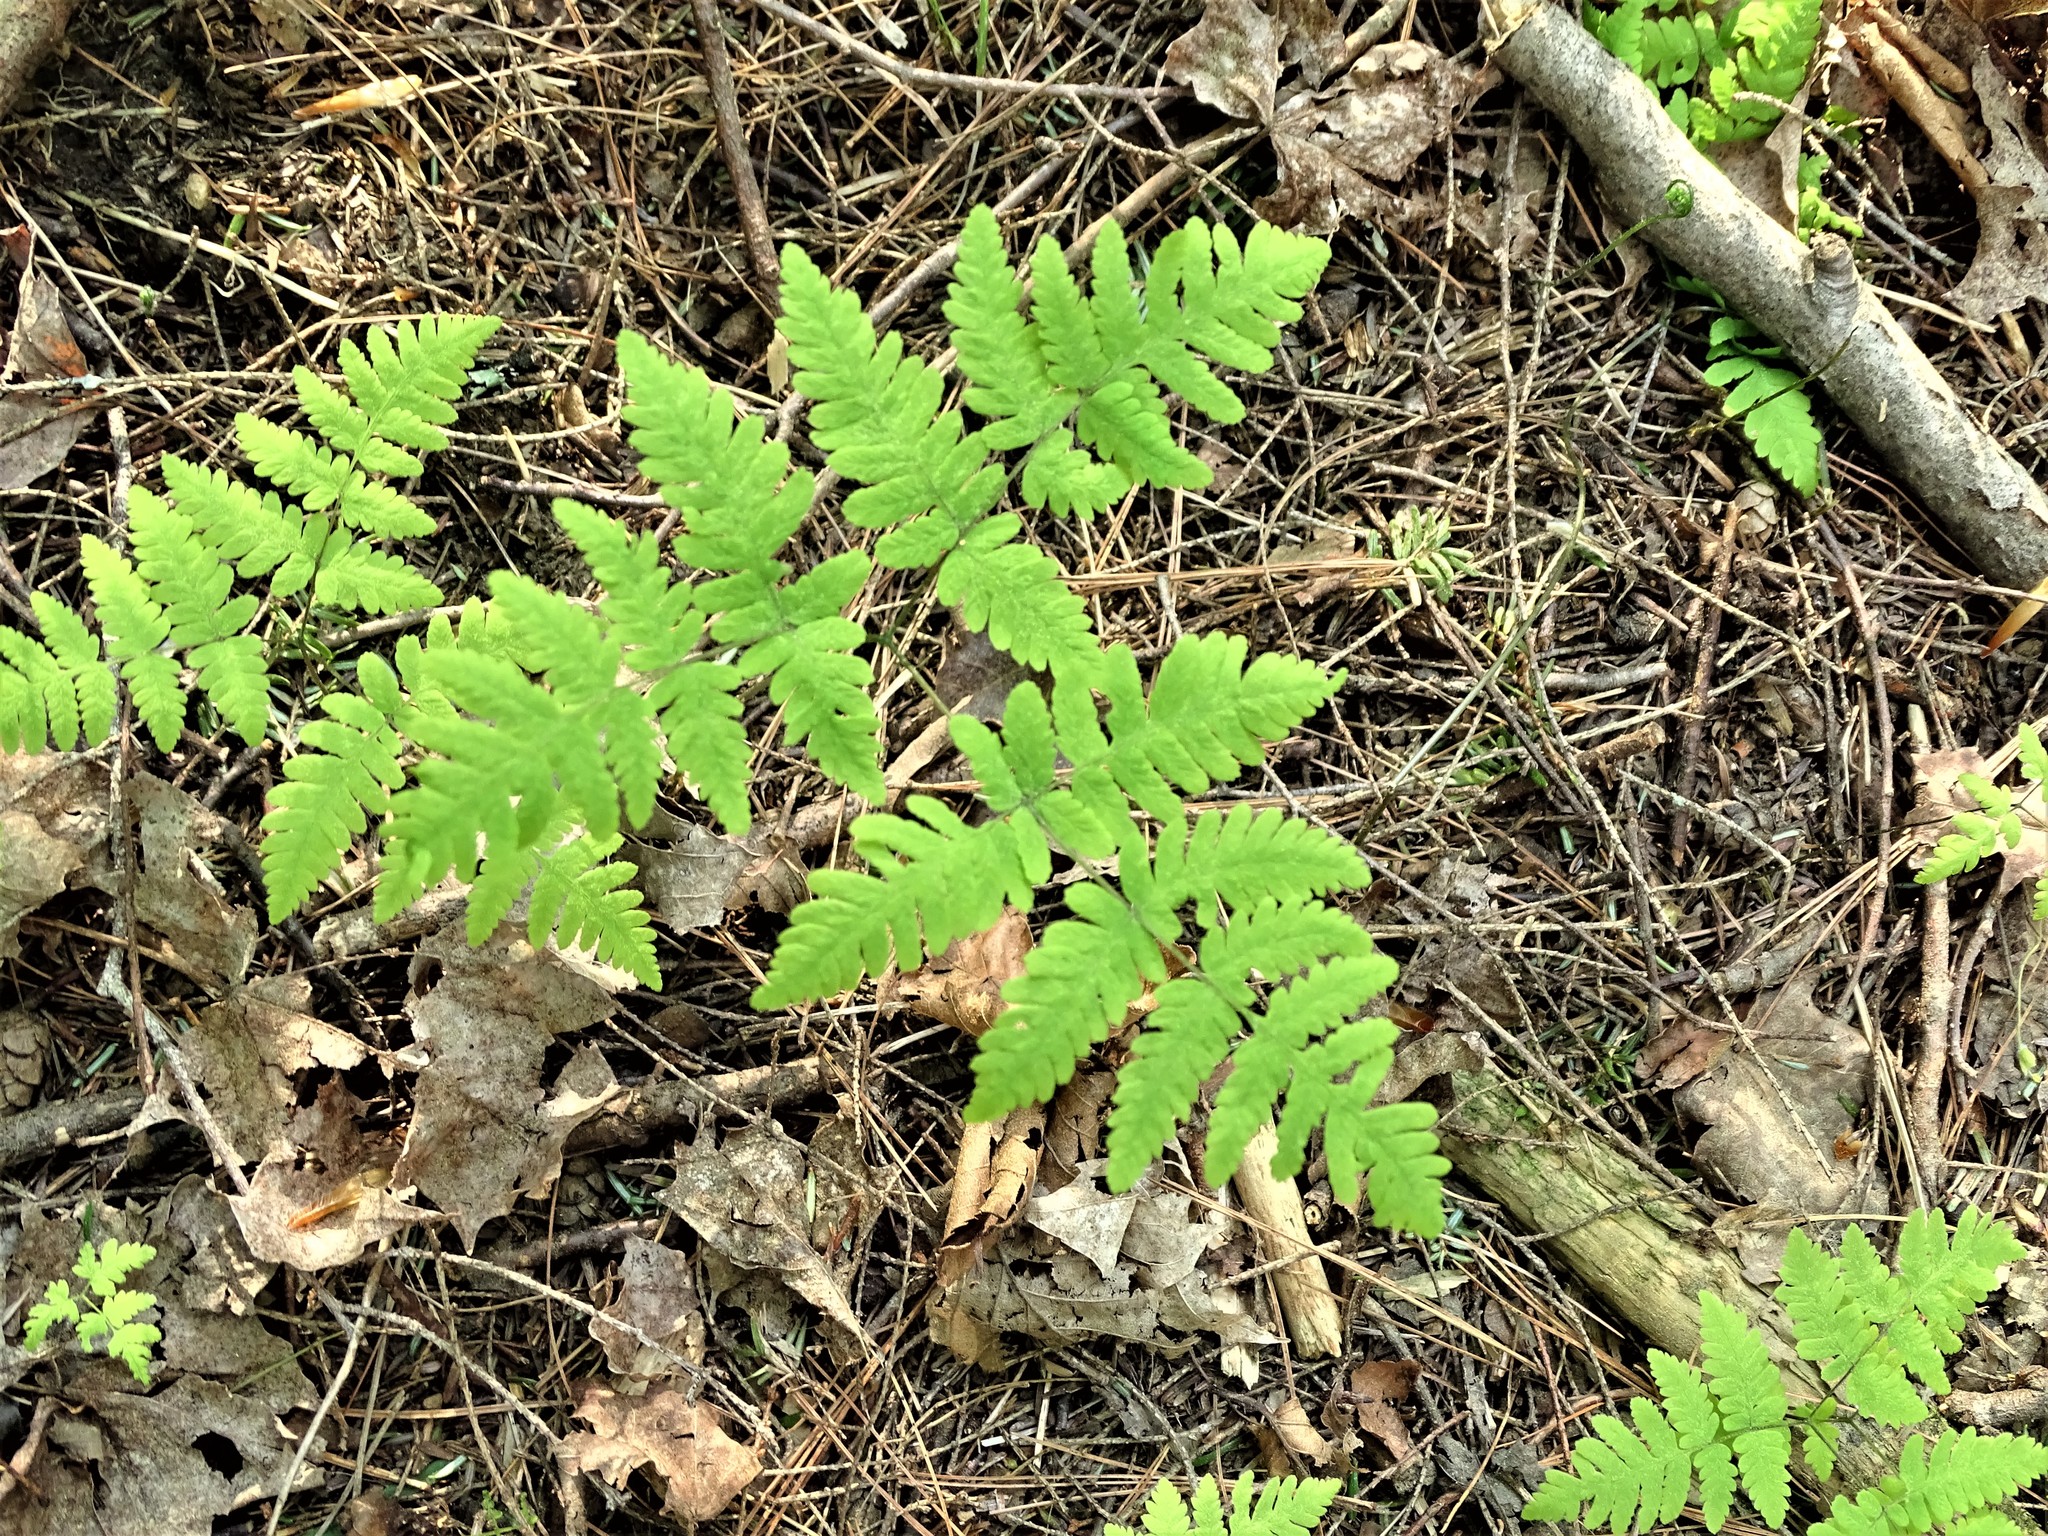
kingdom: Plantae
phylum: Tracheophyta
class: Polypodiopsida
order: Polypodiales
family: Cystopteridaceae
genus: Gymnocarpium
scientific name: Gymnocarpium dryopteris
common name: Oak fern
